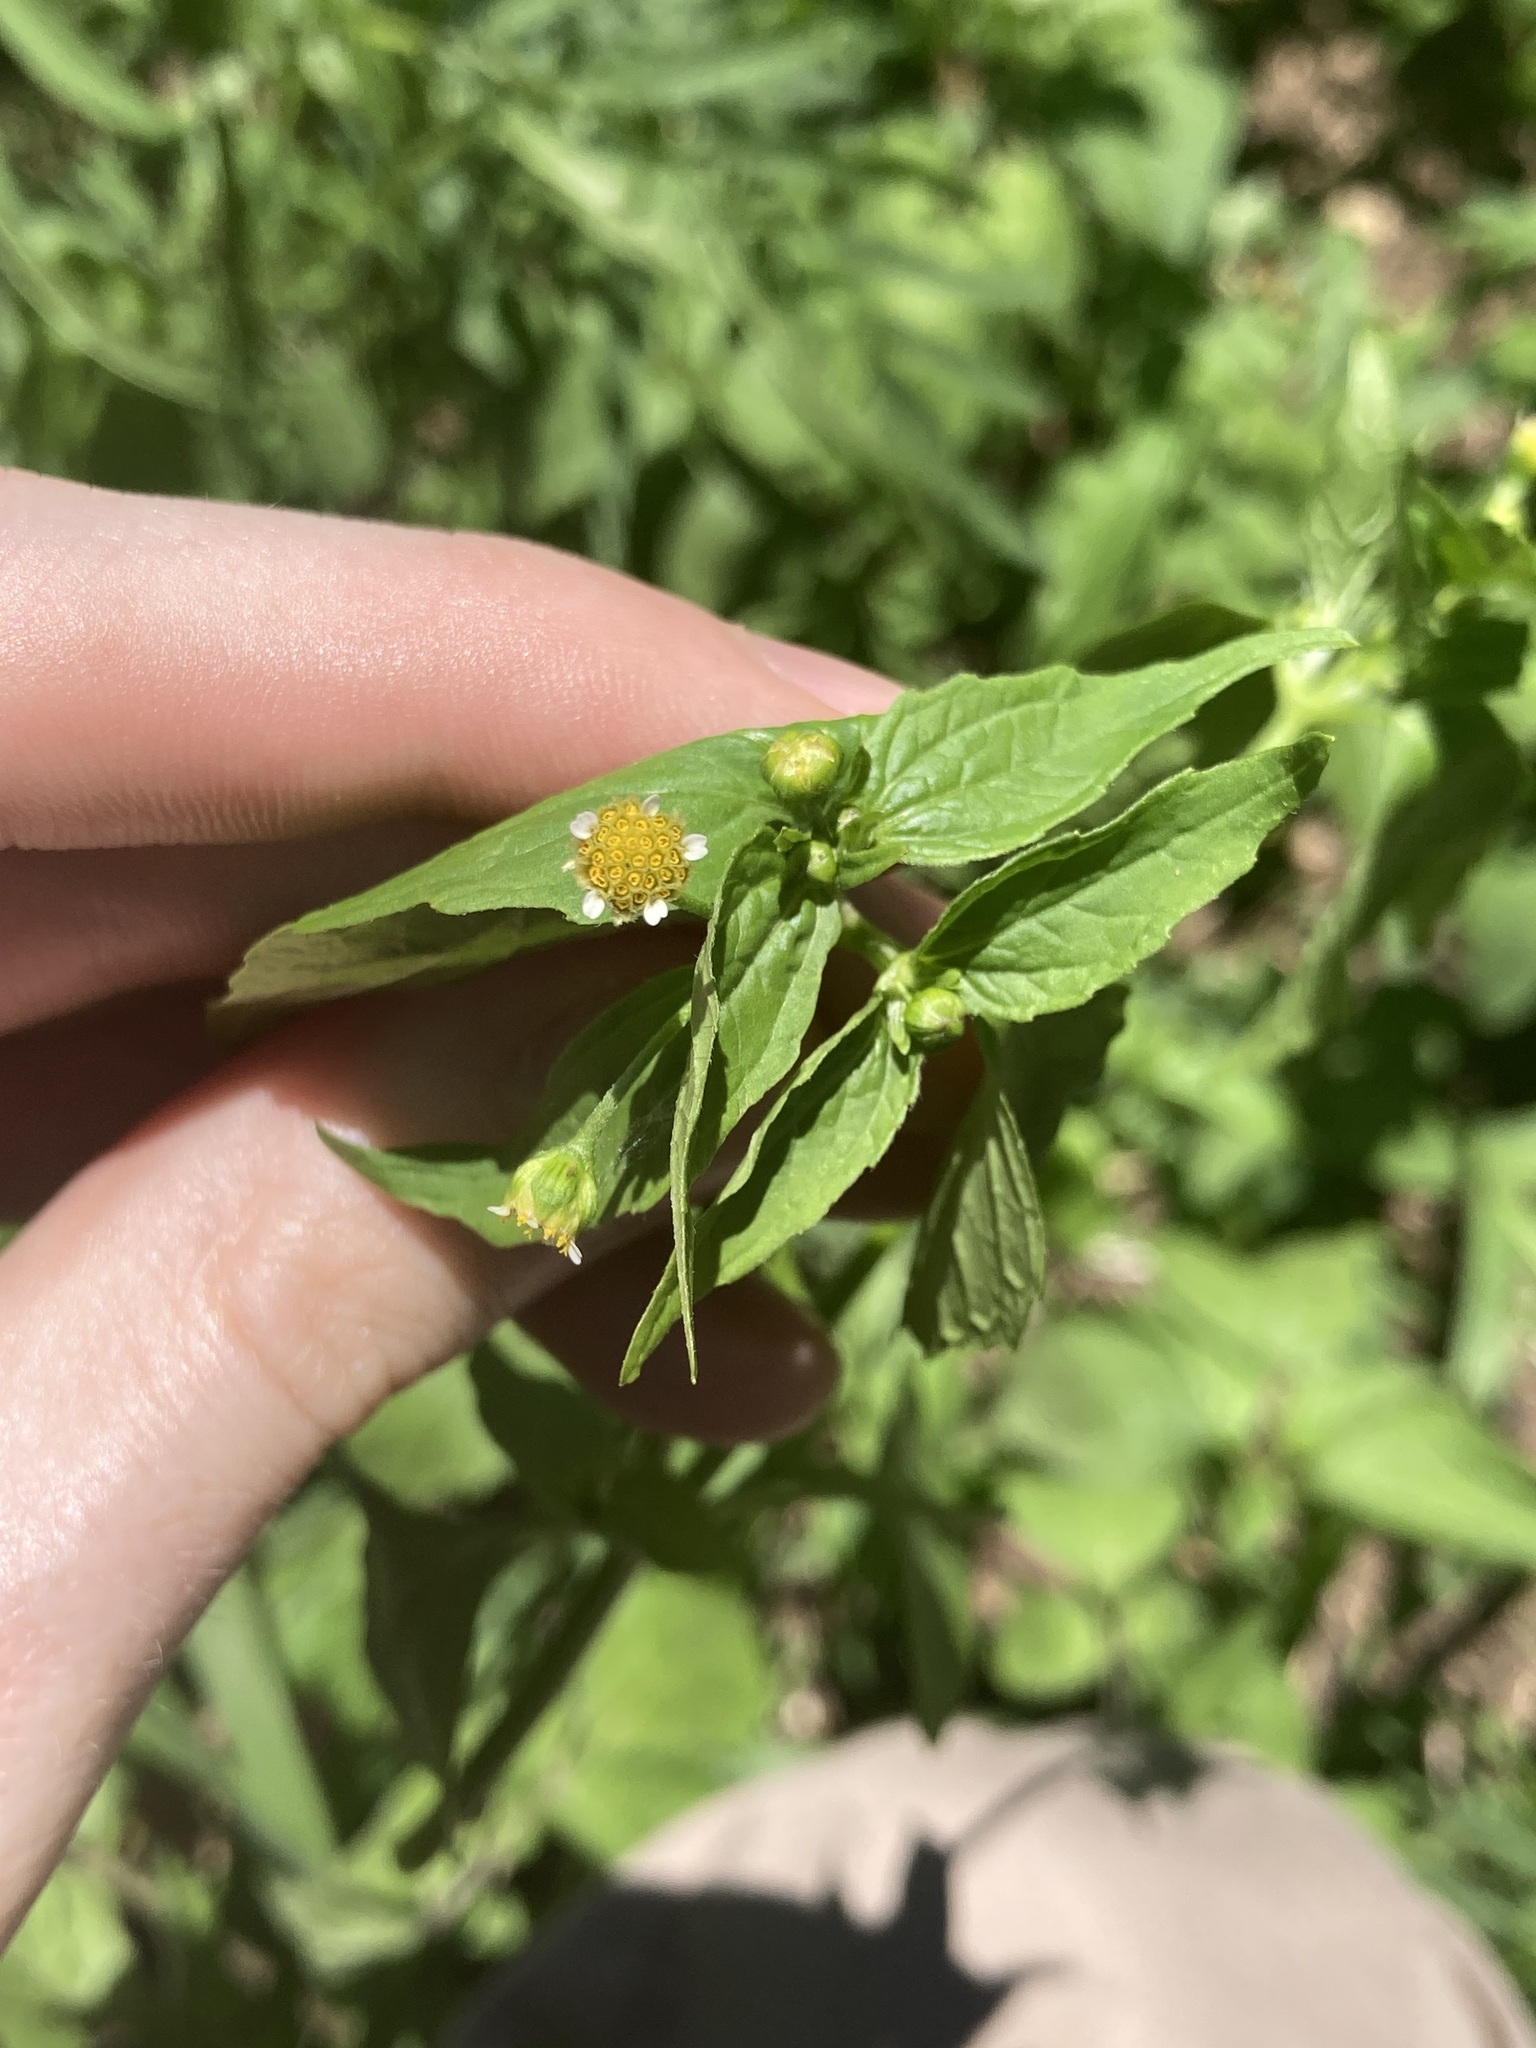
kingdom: Plantae
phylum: Tracheophyta
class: Magnoliopsida
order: Asterales
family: Asteraceae
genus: Galinsoga
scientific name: Galinsoga parviflora
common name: Gallant soldier
